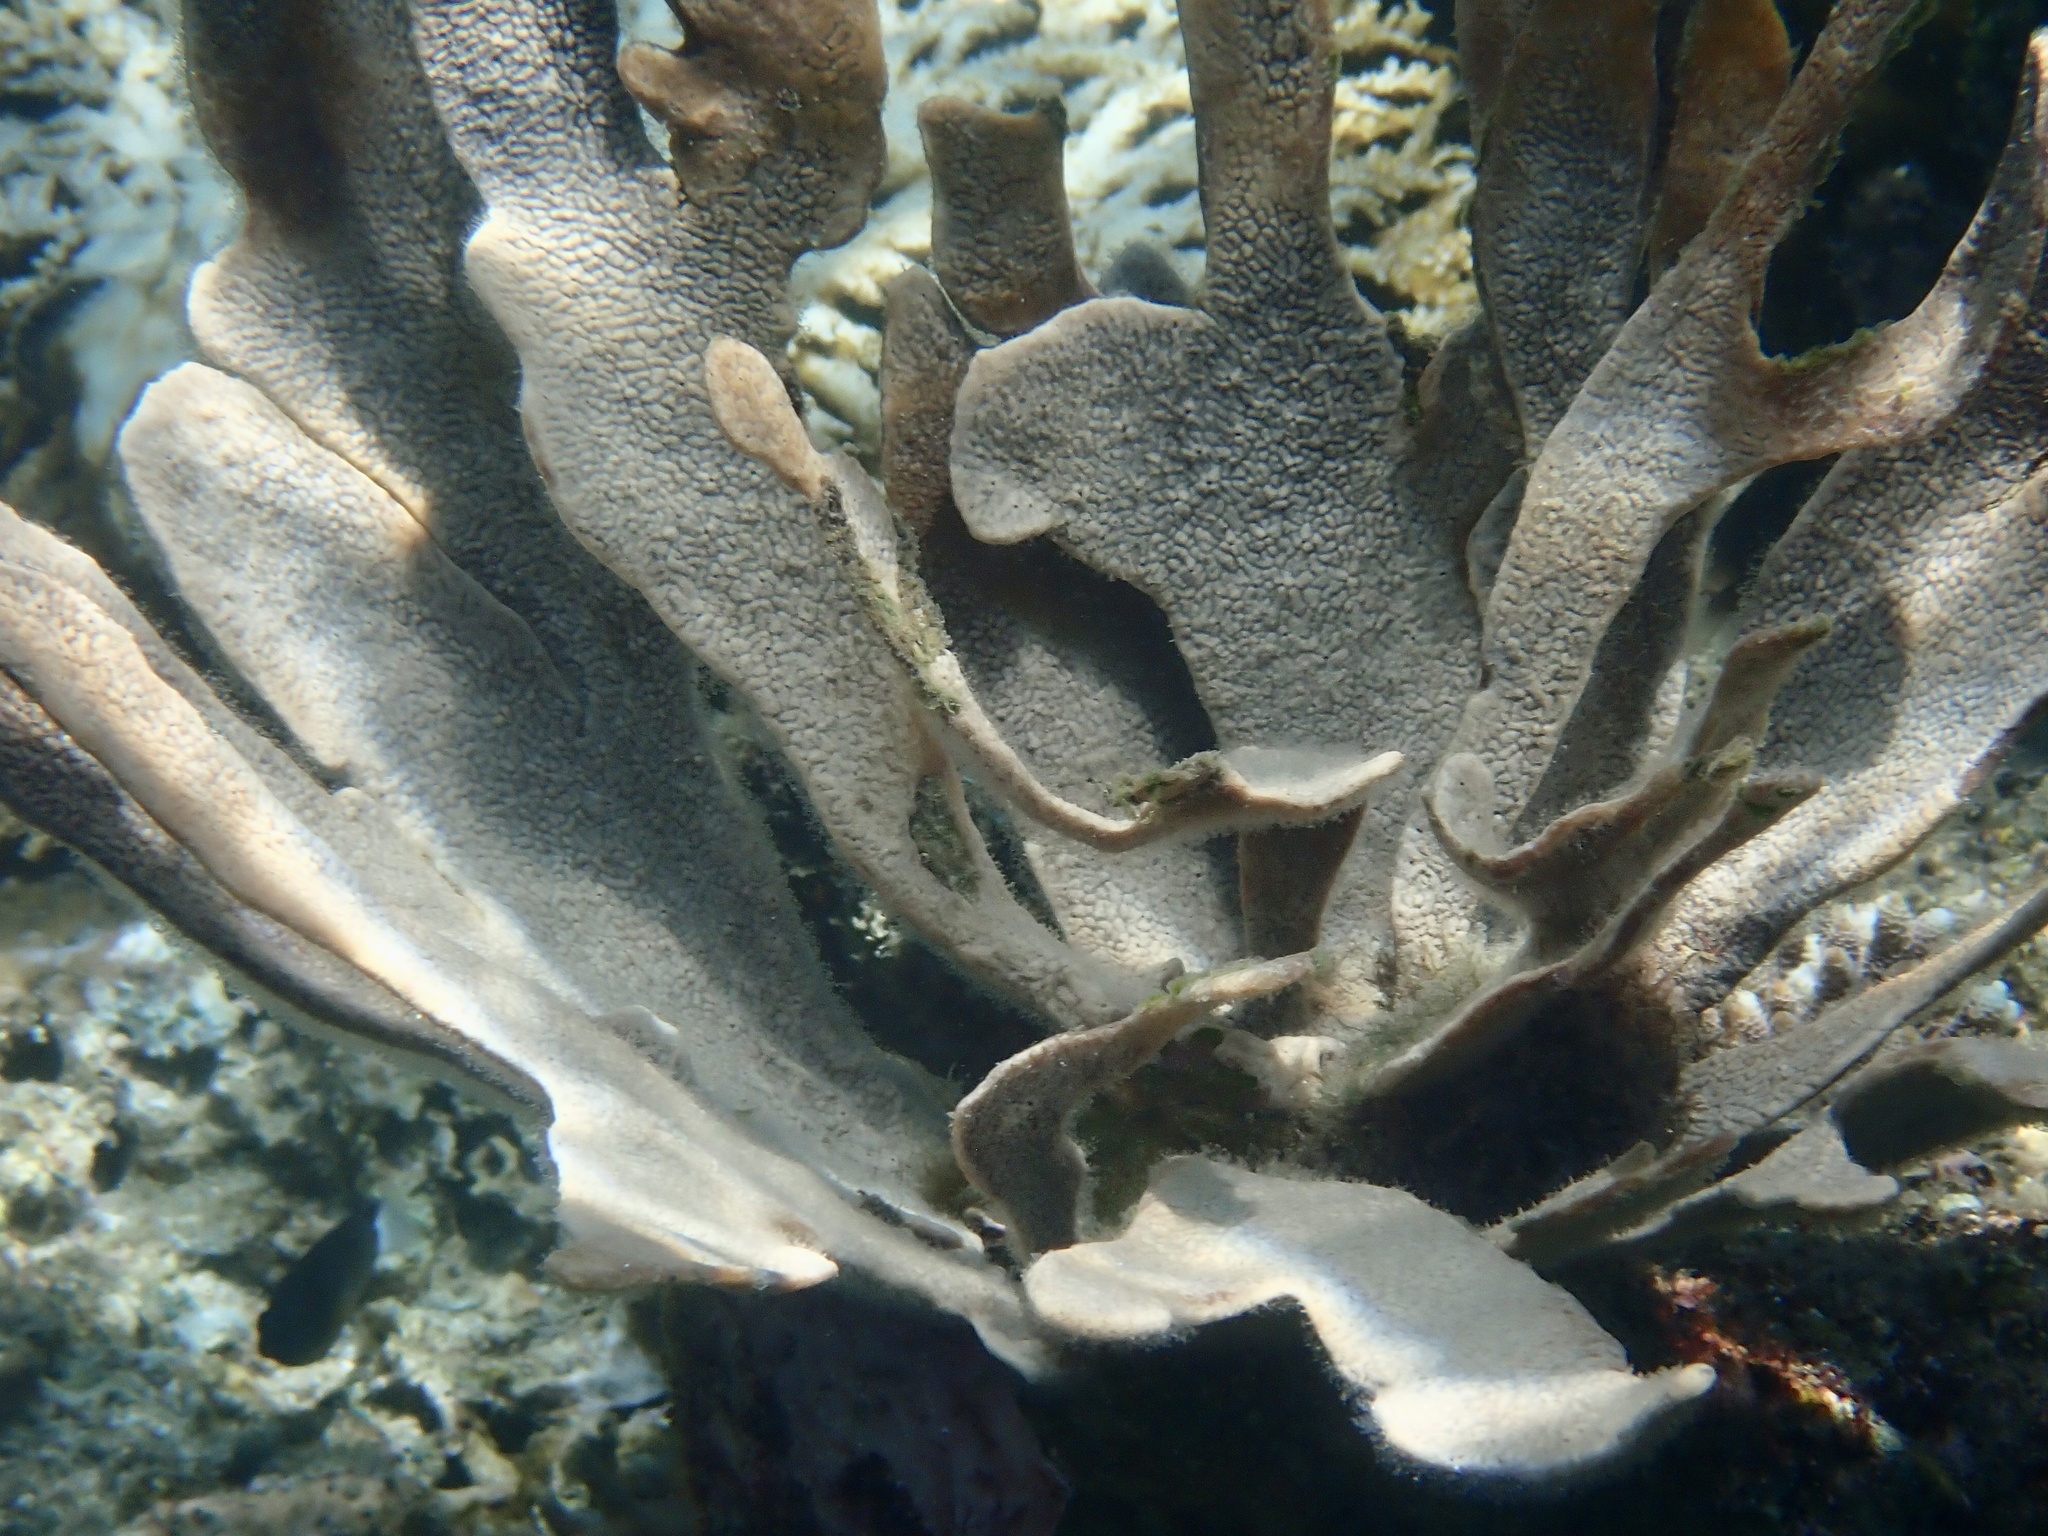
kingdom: Animalia
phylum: Porifera
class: Demospongiae
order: Dictyoceratida
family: Thorectidae
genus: Phyllospongia
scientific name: Phyllospongia foliascens
